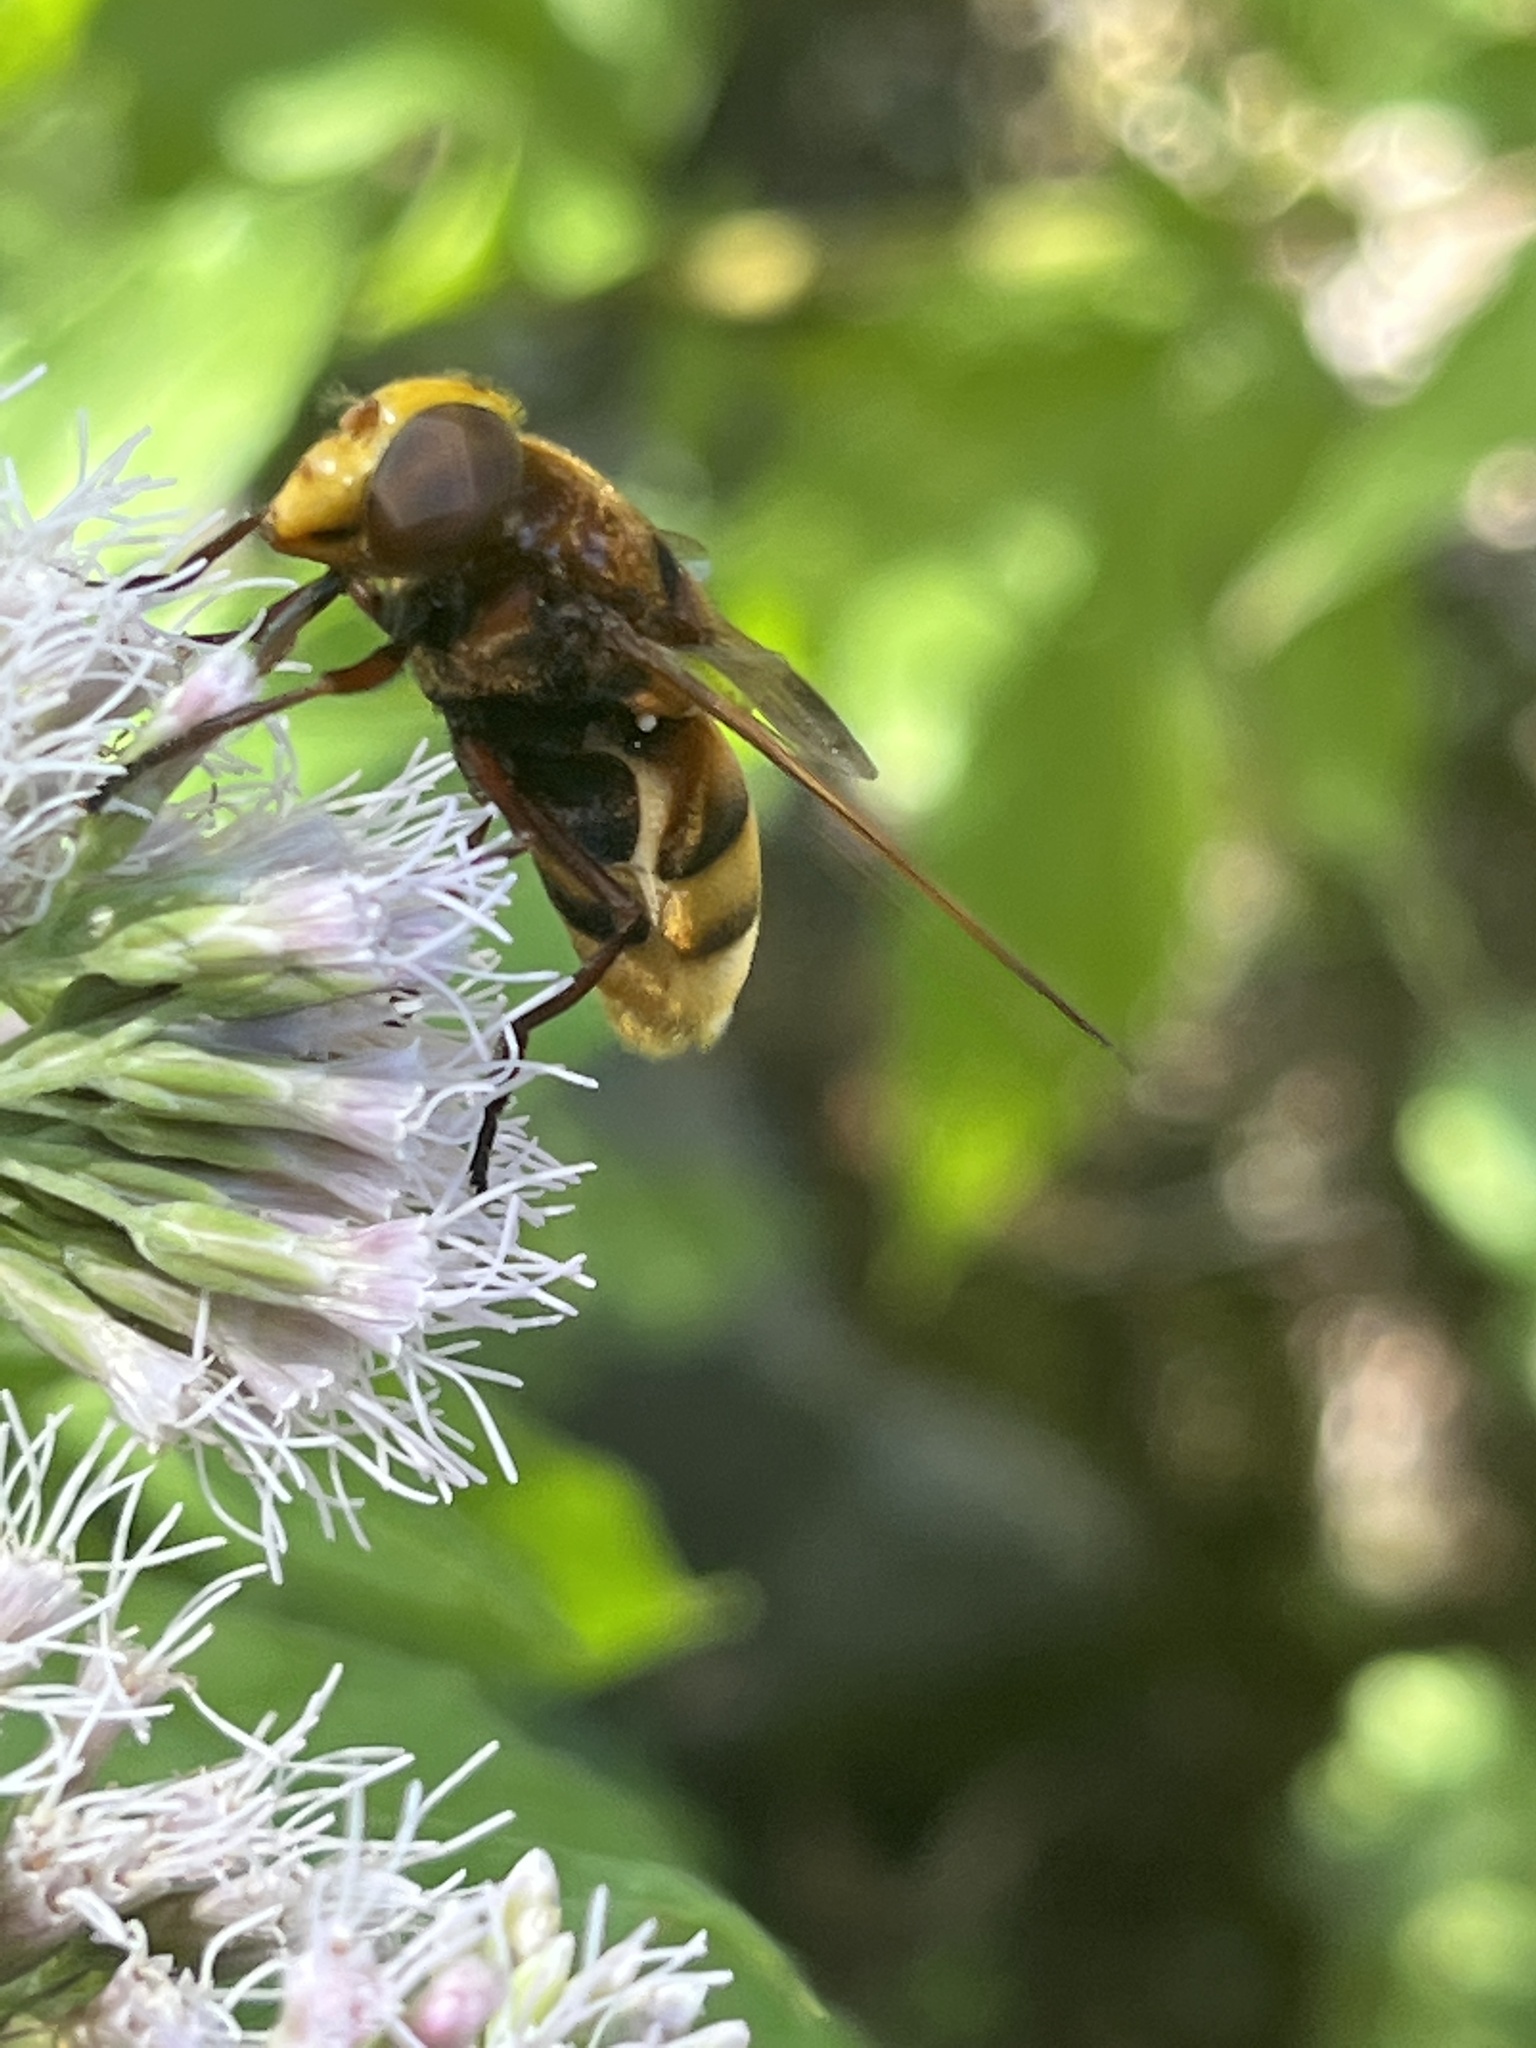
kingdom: Animalia
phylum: Arthropoda
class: Insecta
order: Diptera
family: Syrphidae
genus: Volucella
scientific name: Volucella zonaria
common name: Hornet hoverfly
